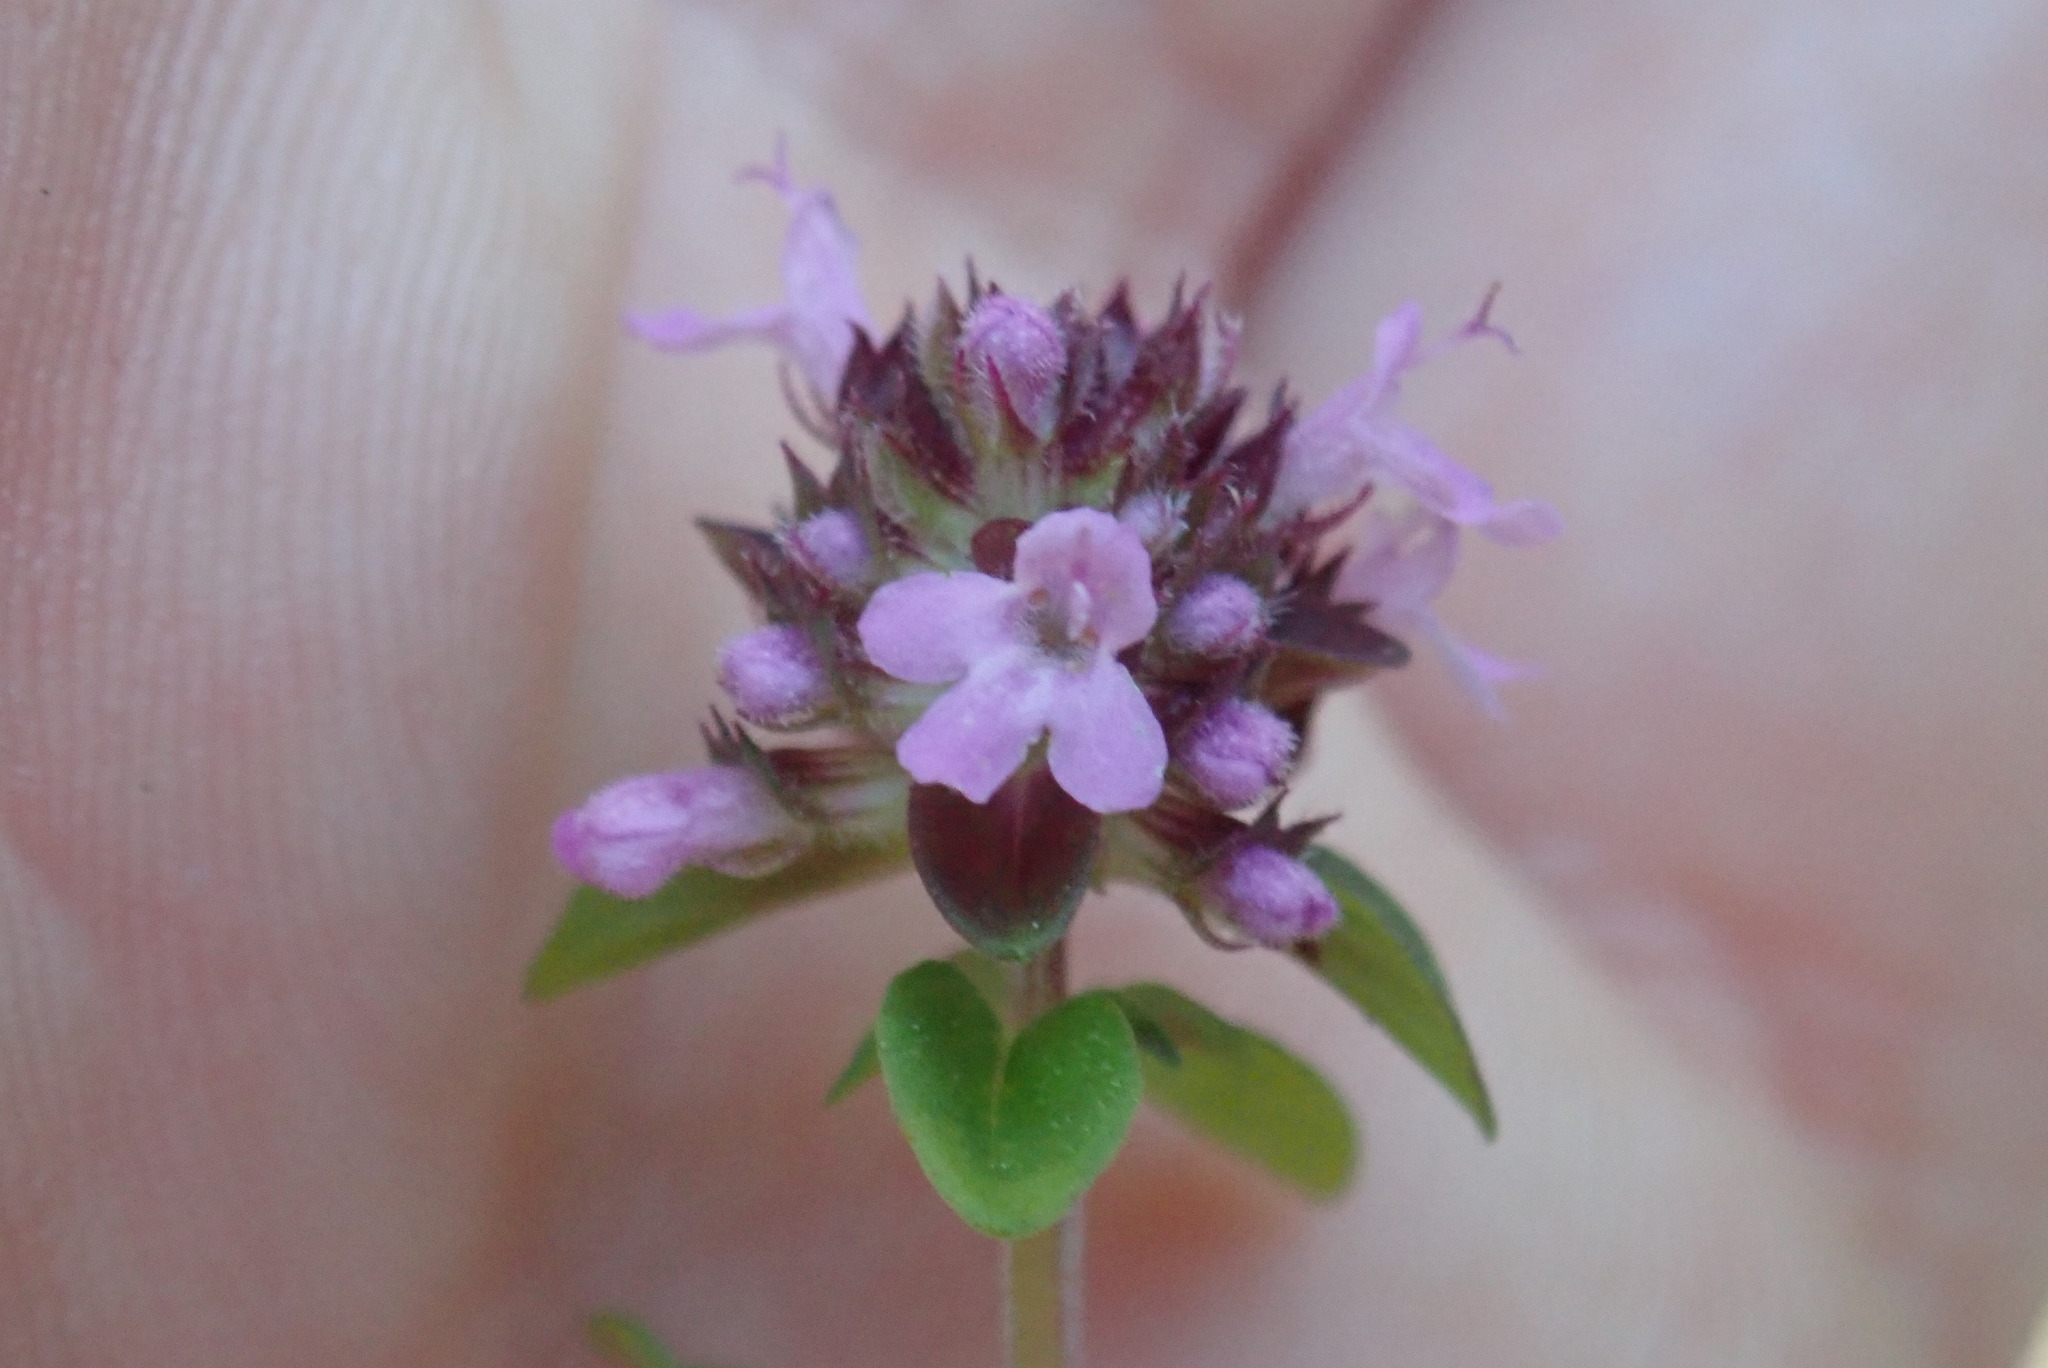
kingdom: Plantae
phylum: Tracheophyta
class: Magnoliopsida
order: Lamiales
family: Lamiaceae
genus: Thymus
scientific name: Thymus pulegioides
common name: Large thyme
